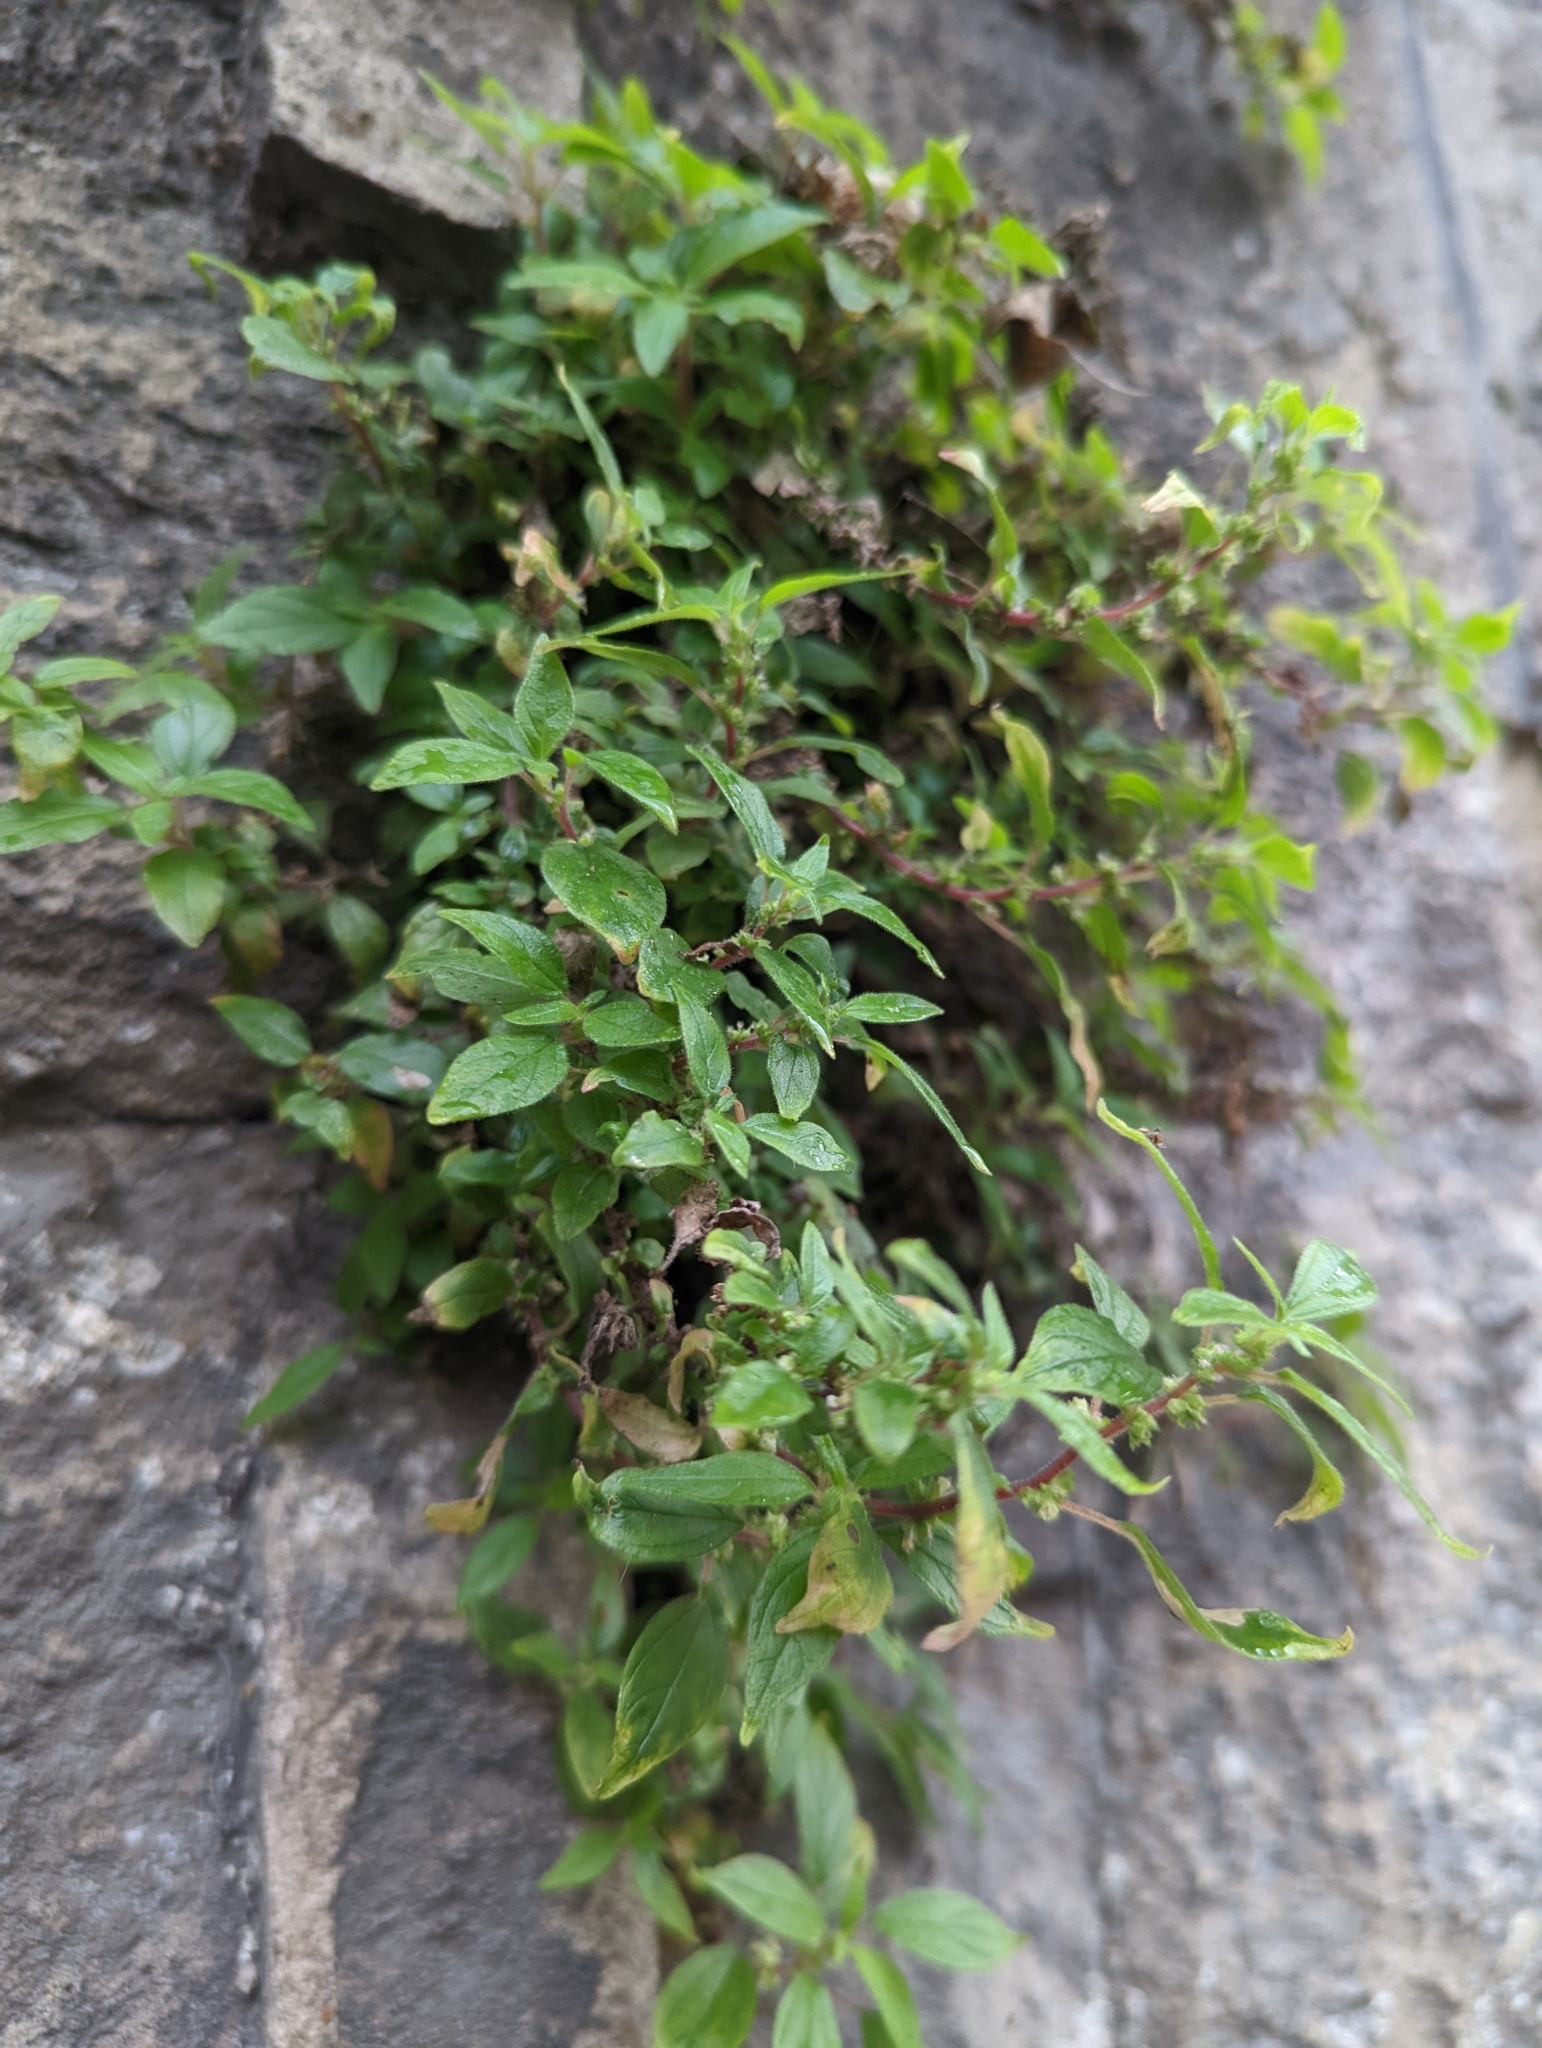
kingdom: Plantae
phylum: Tracheophyta
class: Magnoliopsida
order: Rosales
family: Urticaceae
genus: Parietaria
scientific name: Parietaria judaica
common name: Pellitory-of-the-wall
